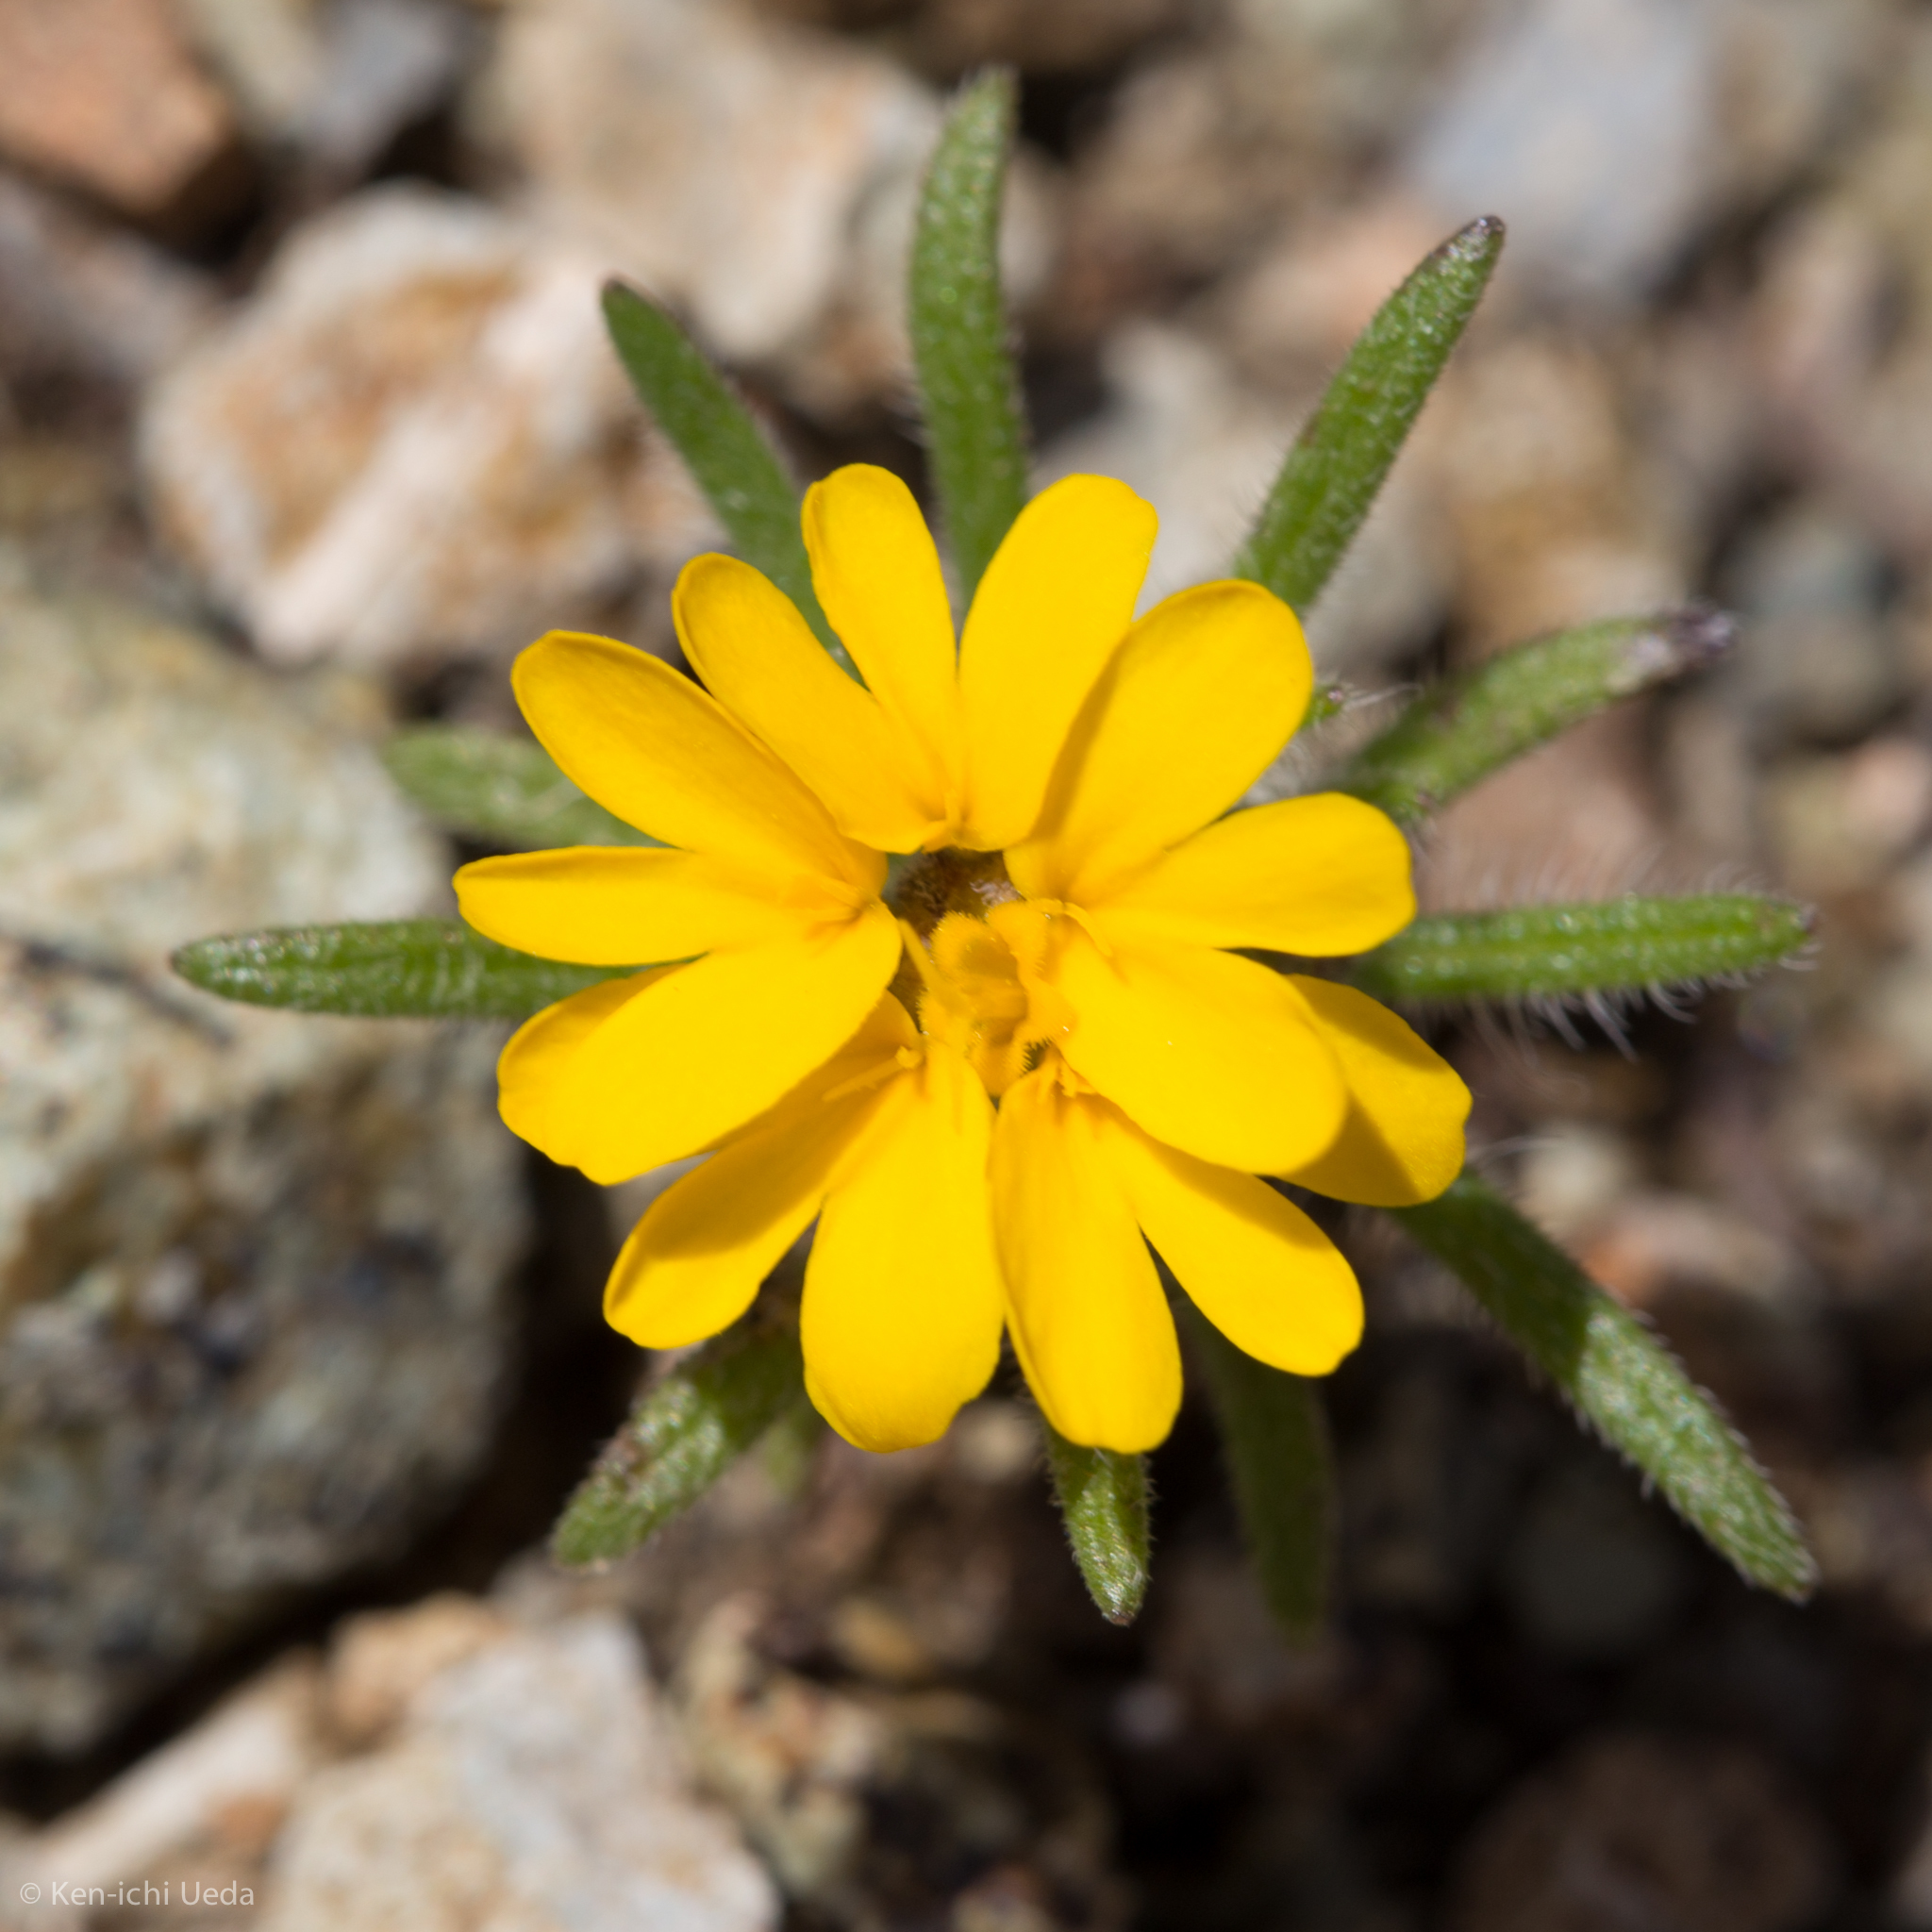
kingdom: Plantae
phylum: Tracheophyta
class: Magnoliopsida
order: Asterales
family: Asteraceae
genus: Harmonia
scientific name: Harmonia hallii
